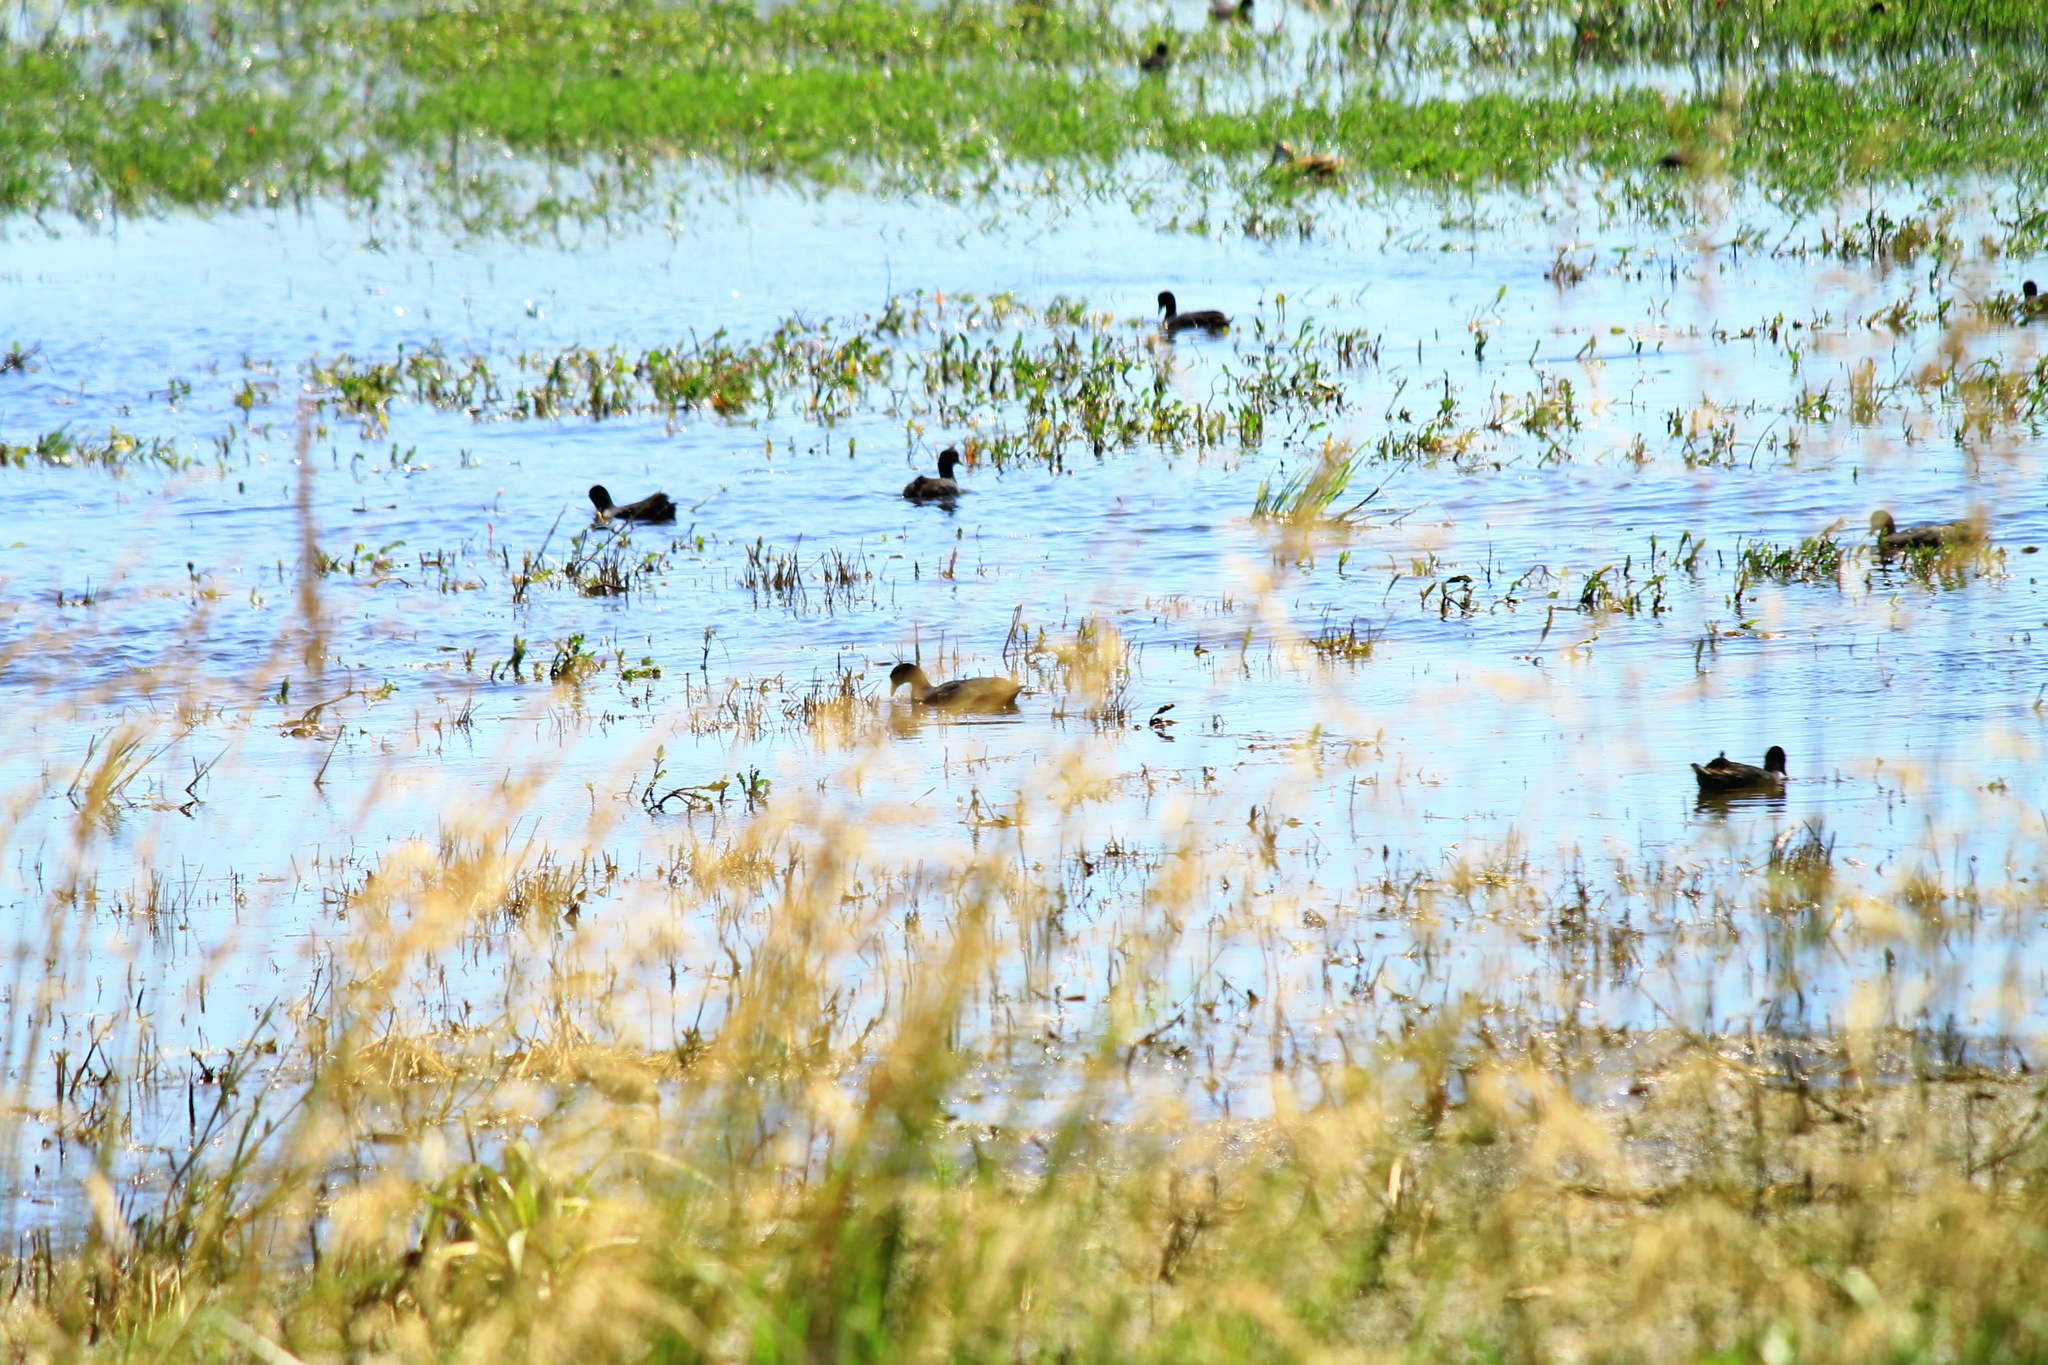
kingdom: Animalia
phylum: Chordata
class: Aves
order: Gruiformes
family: Rallidae
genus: Fulica
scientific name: Fulica leucoptera
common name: White-winged coot
